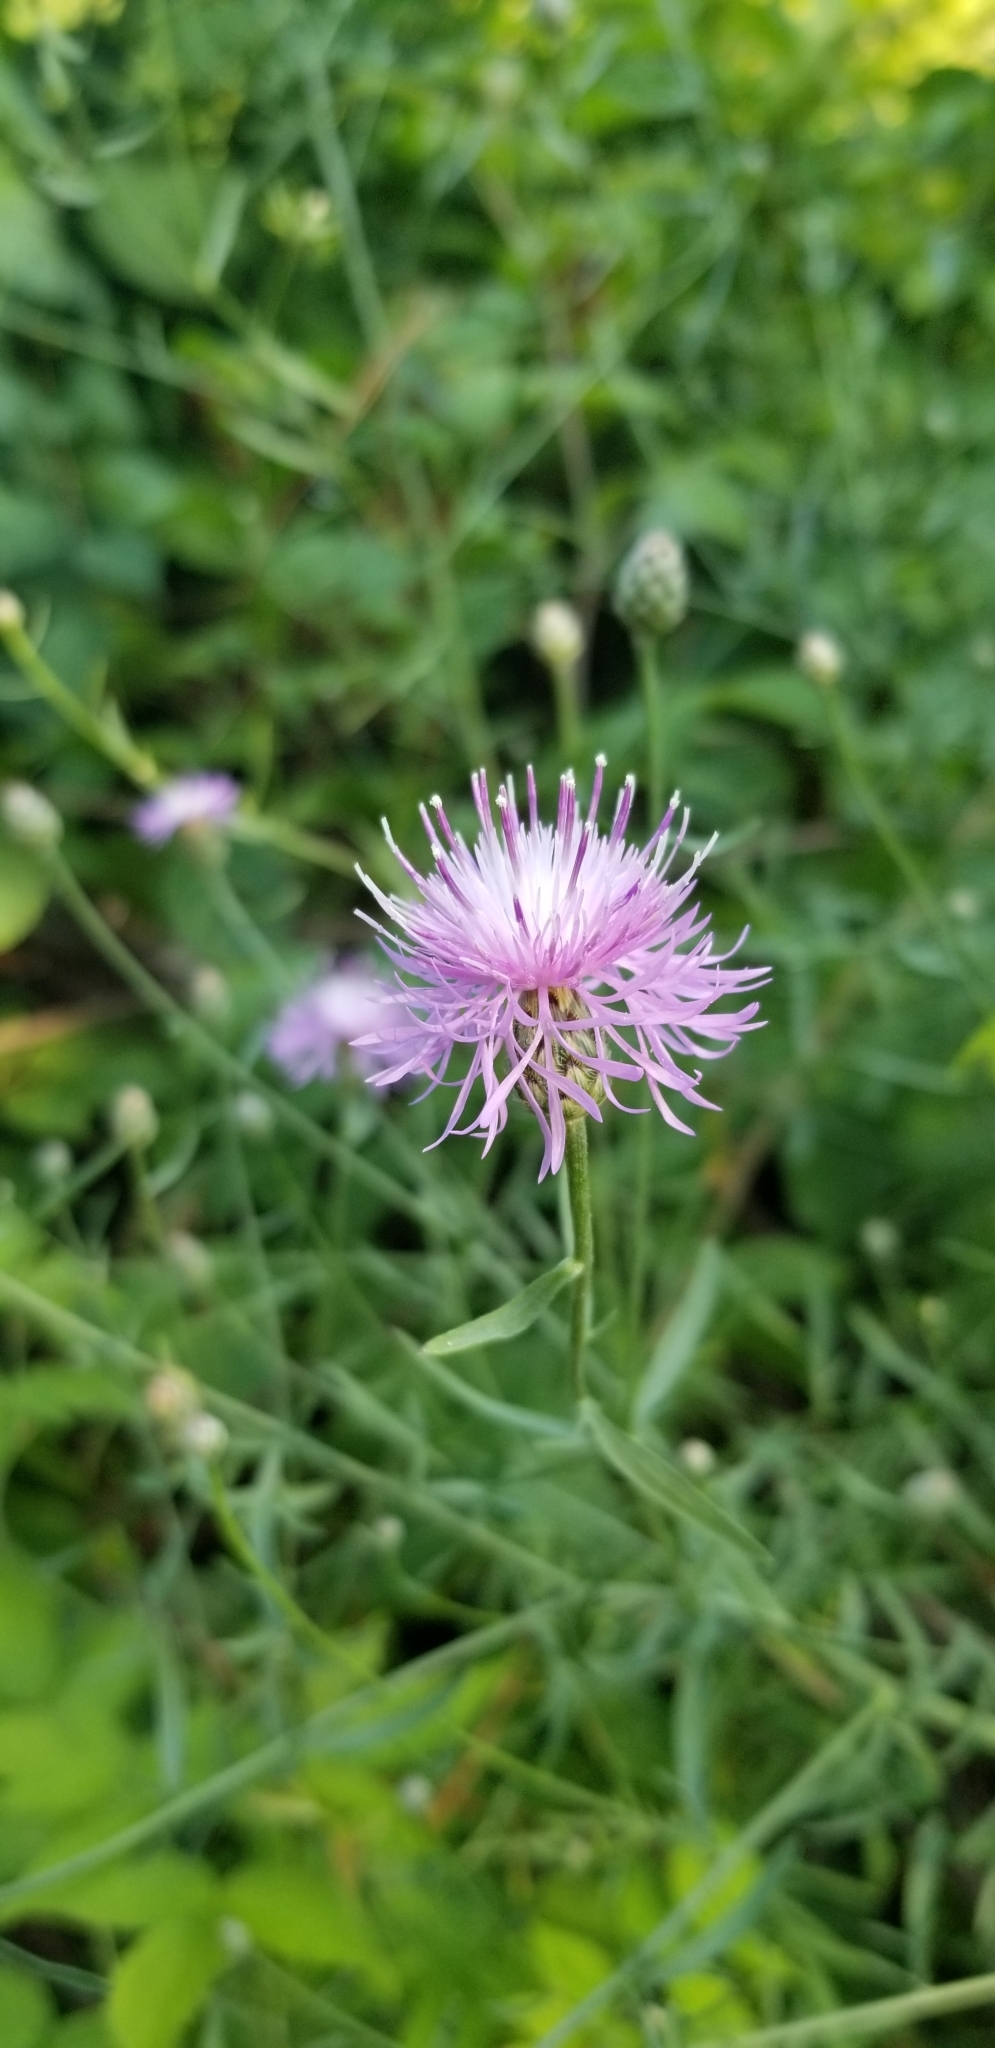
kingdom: Plantae
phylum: Tracheophyta
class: Magnoliopsida
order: Asterales
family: Asteraceae
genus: Centaurea
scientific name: Centaurea stoebe
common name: Spotted knapweed
